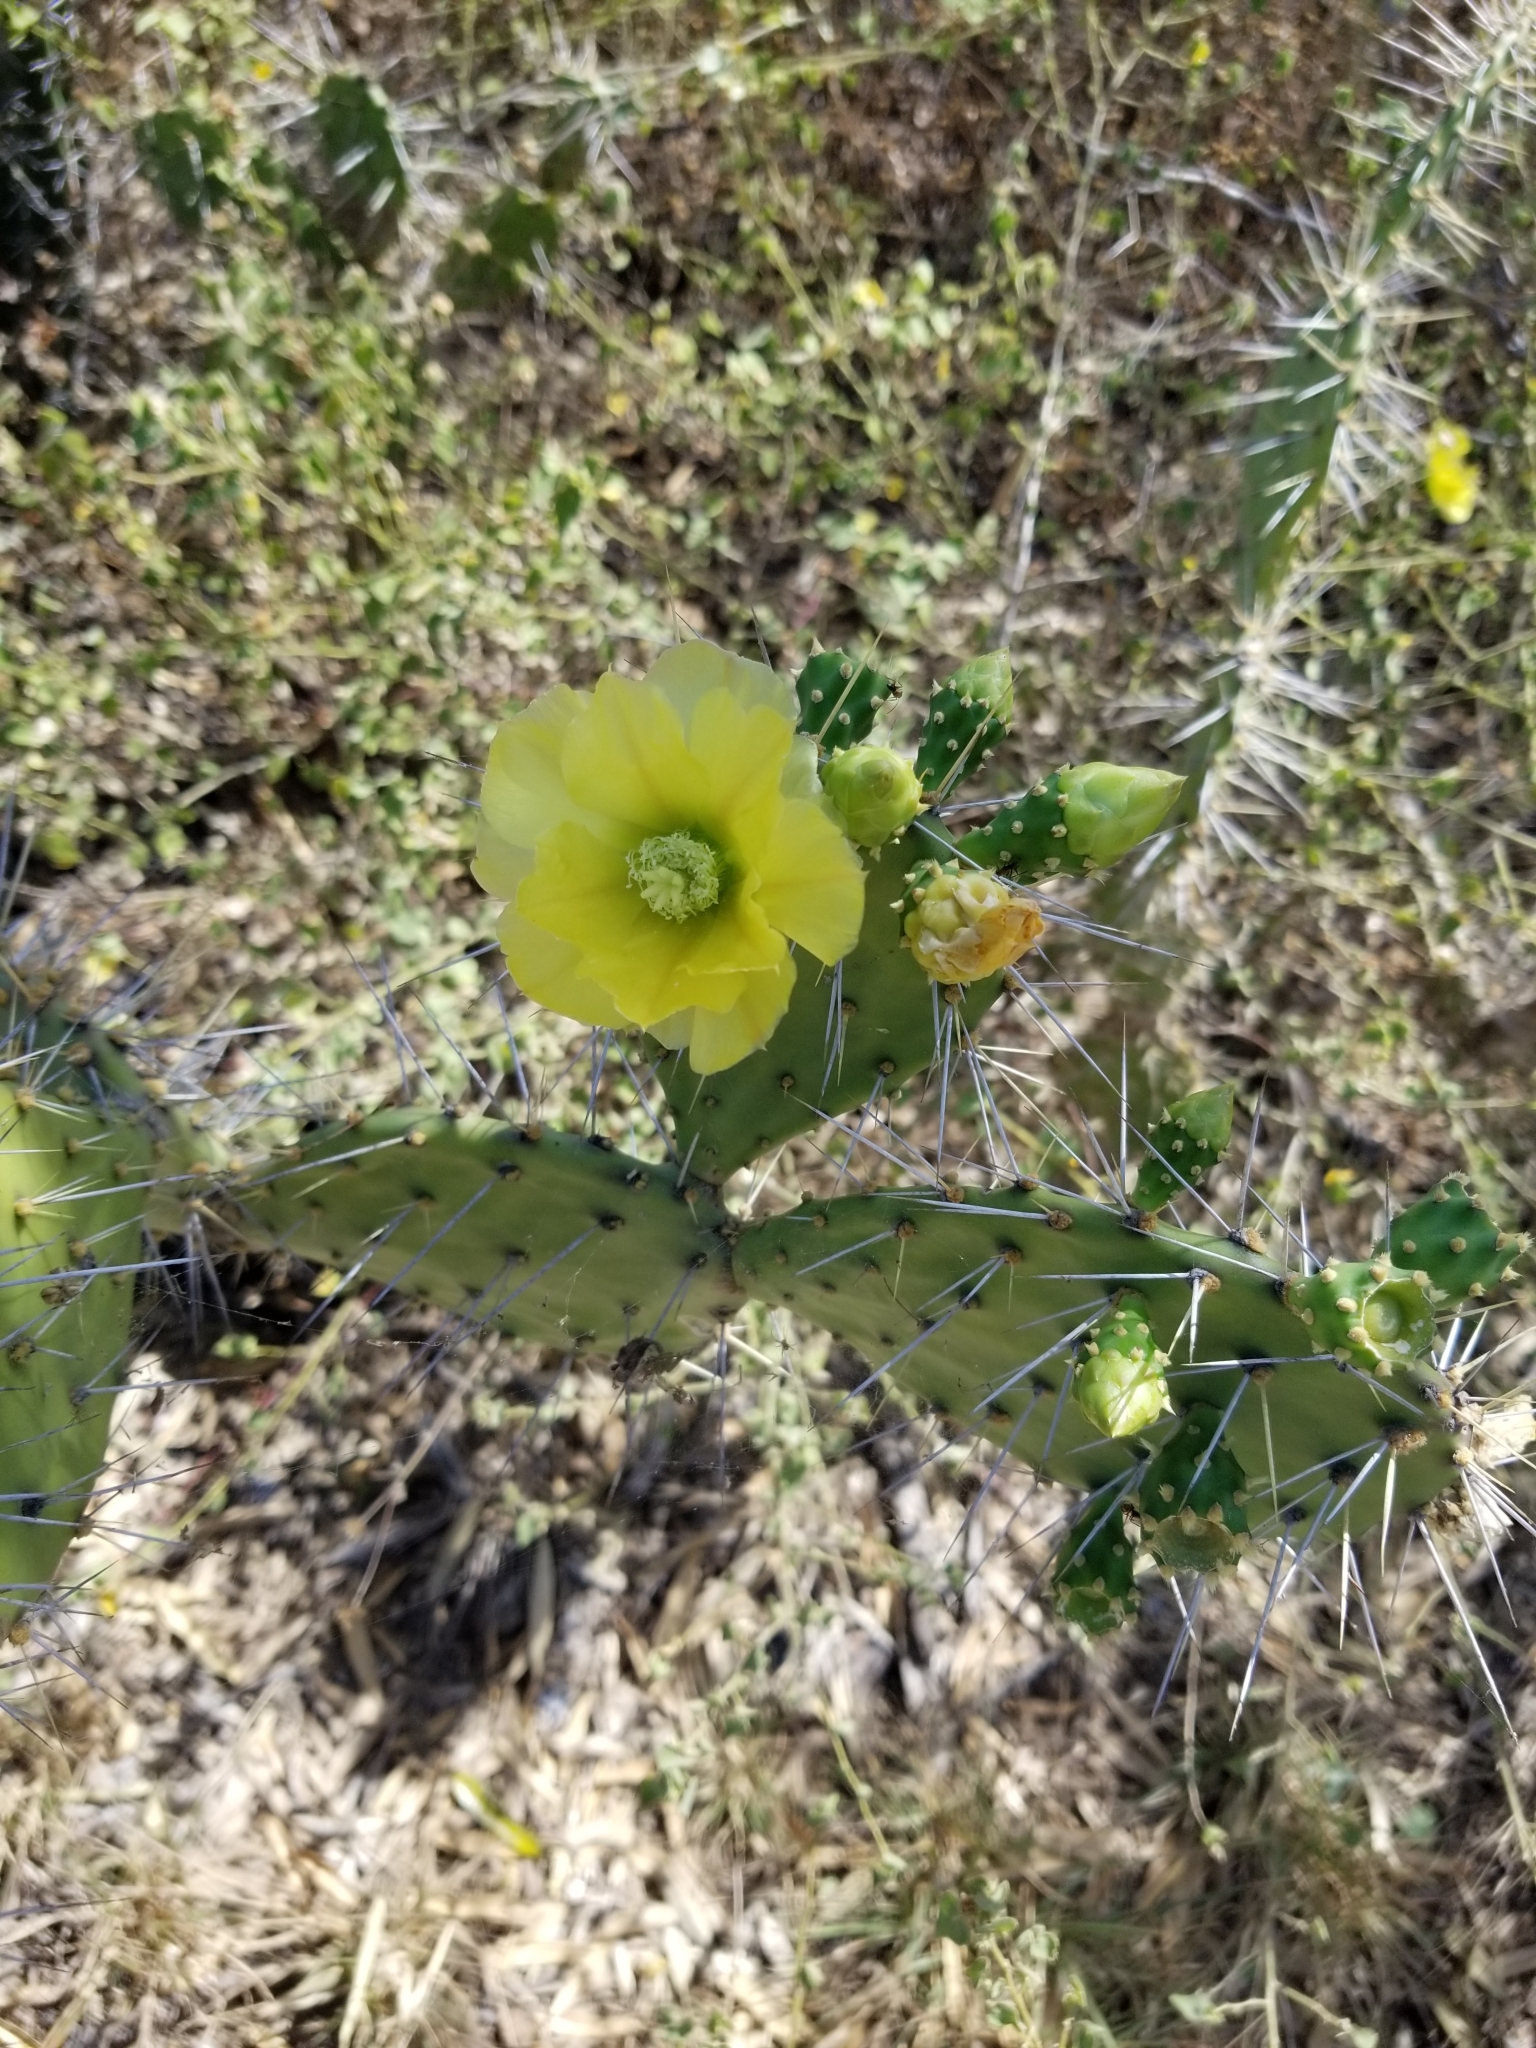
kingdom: Plantae
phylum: Tracheophyta
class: Magnoliopsida
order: Caryophyllales
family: Cactaceae
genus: Opuntia
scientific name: Opuntia caracassana
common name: Common prickly pear
